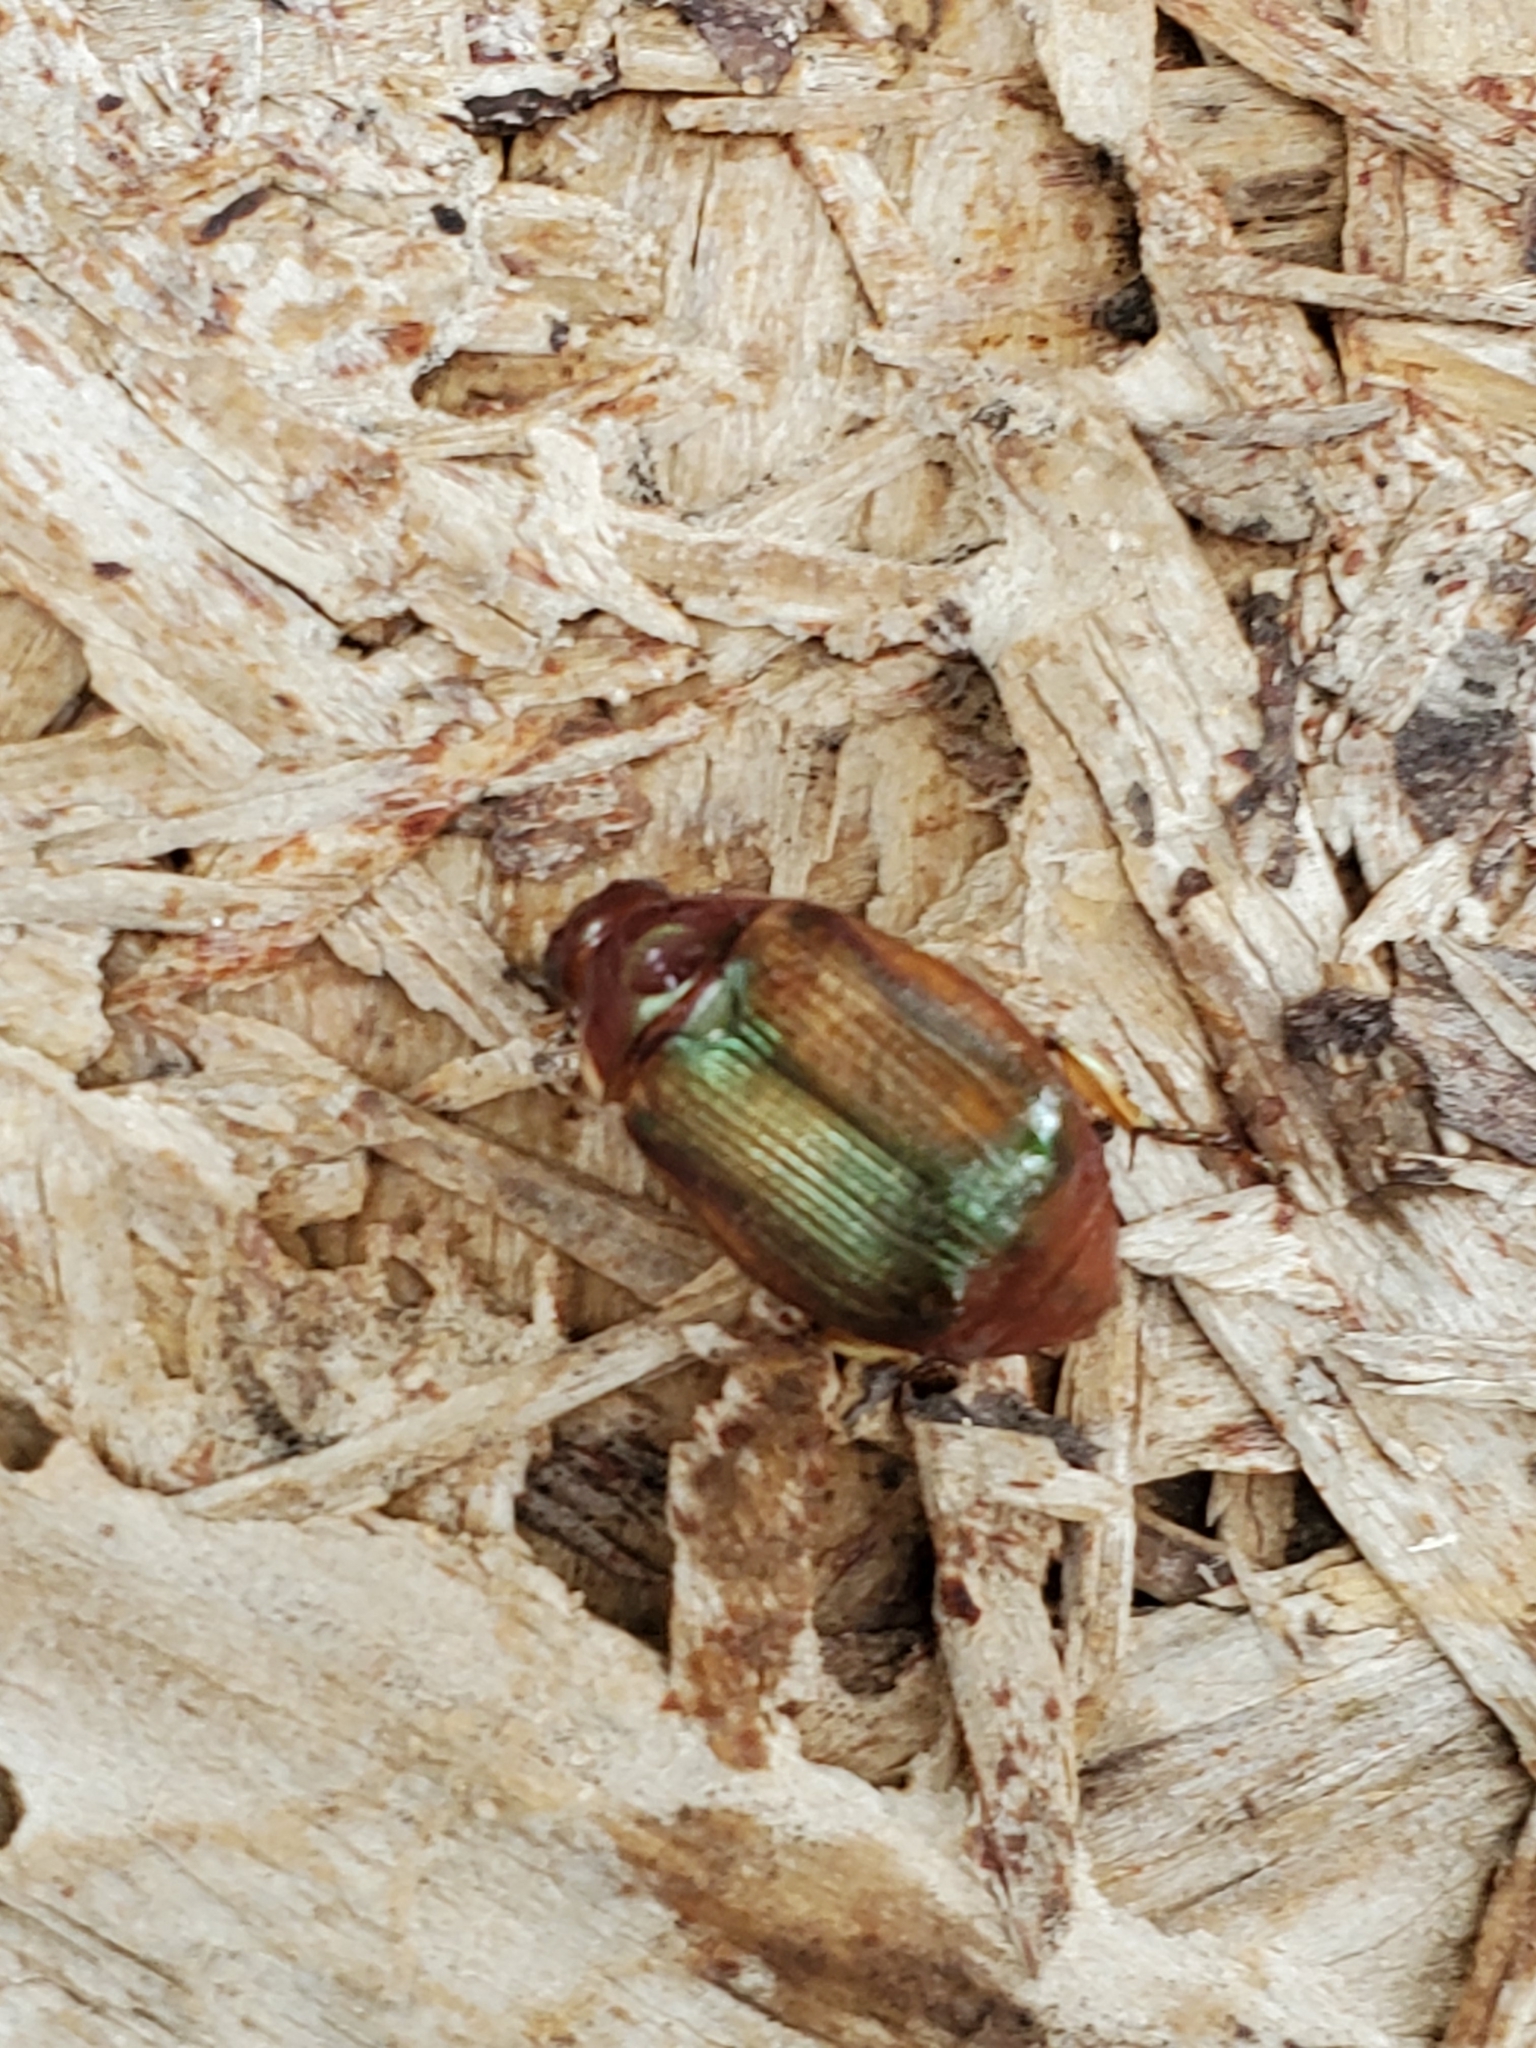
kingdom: Animalia
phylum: Arthropoda
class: Insecta
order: Coleoptera
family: Scarabaeidae
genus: Callistethus
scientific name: Callistethus marginatus
